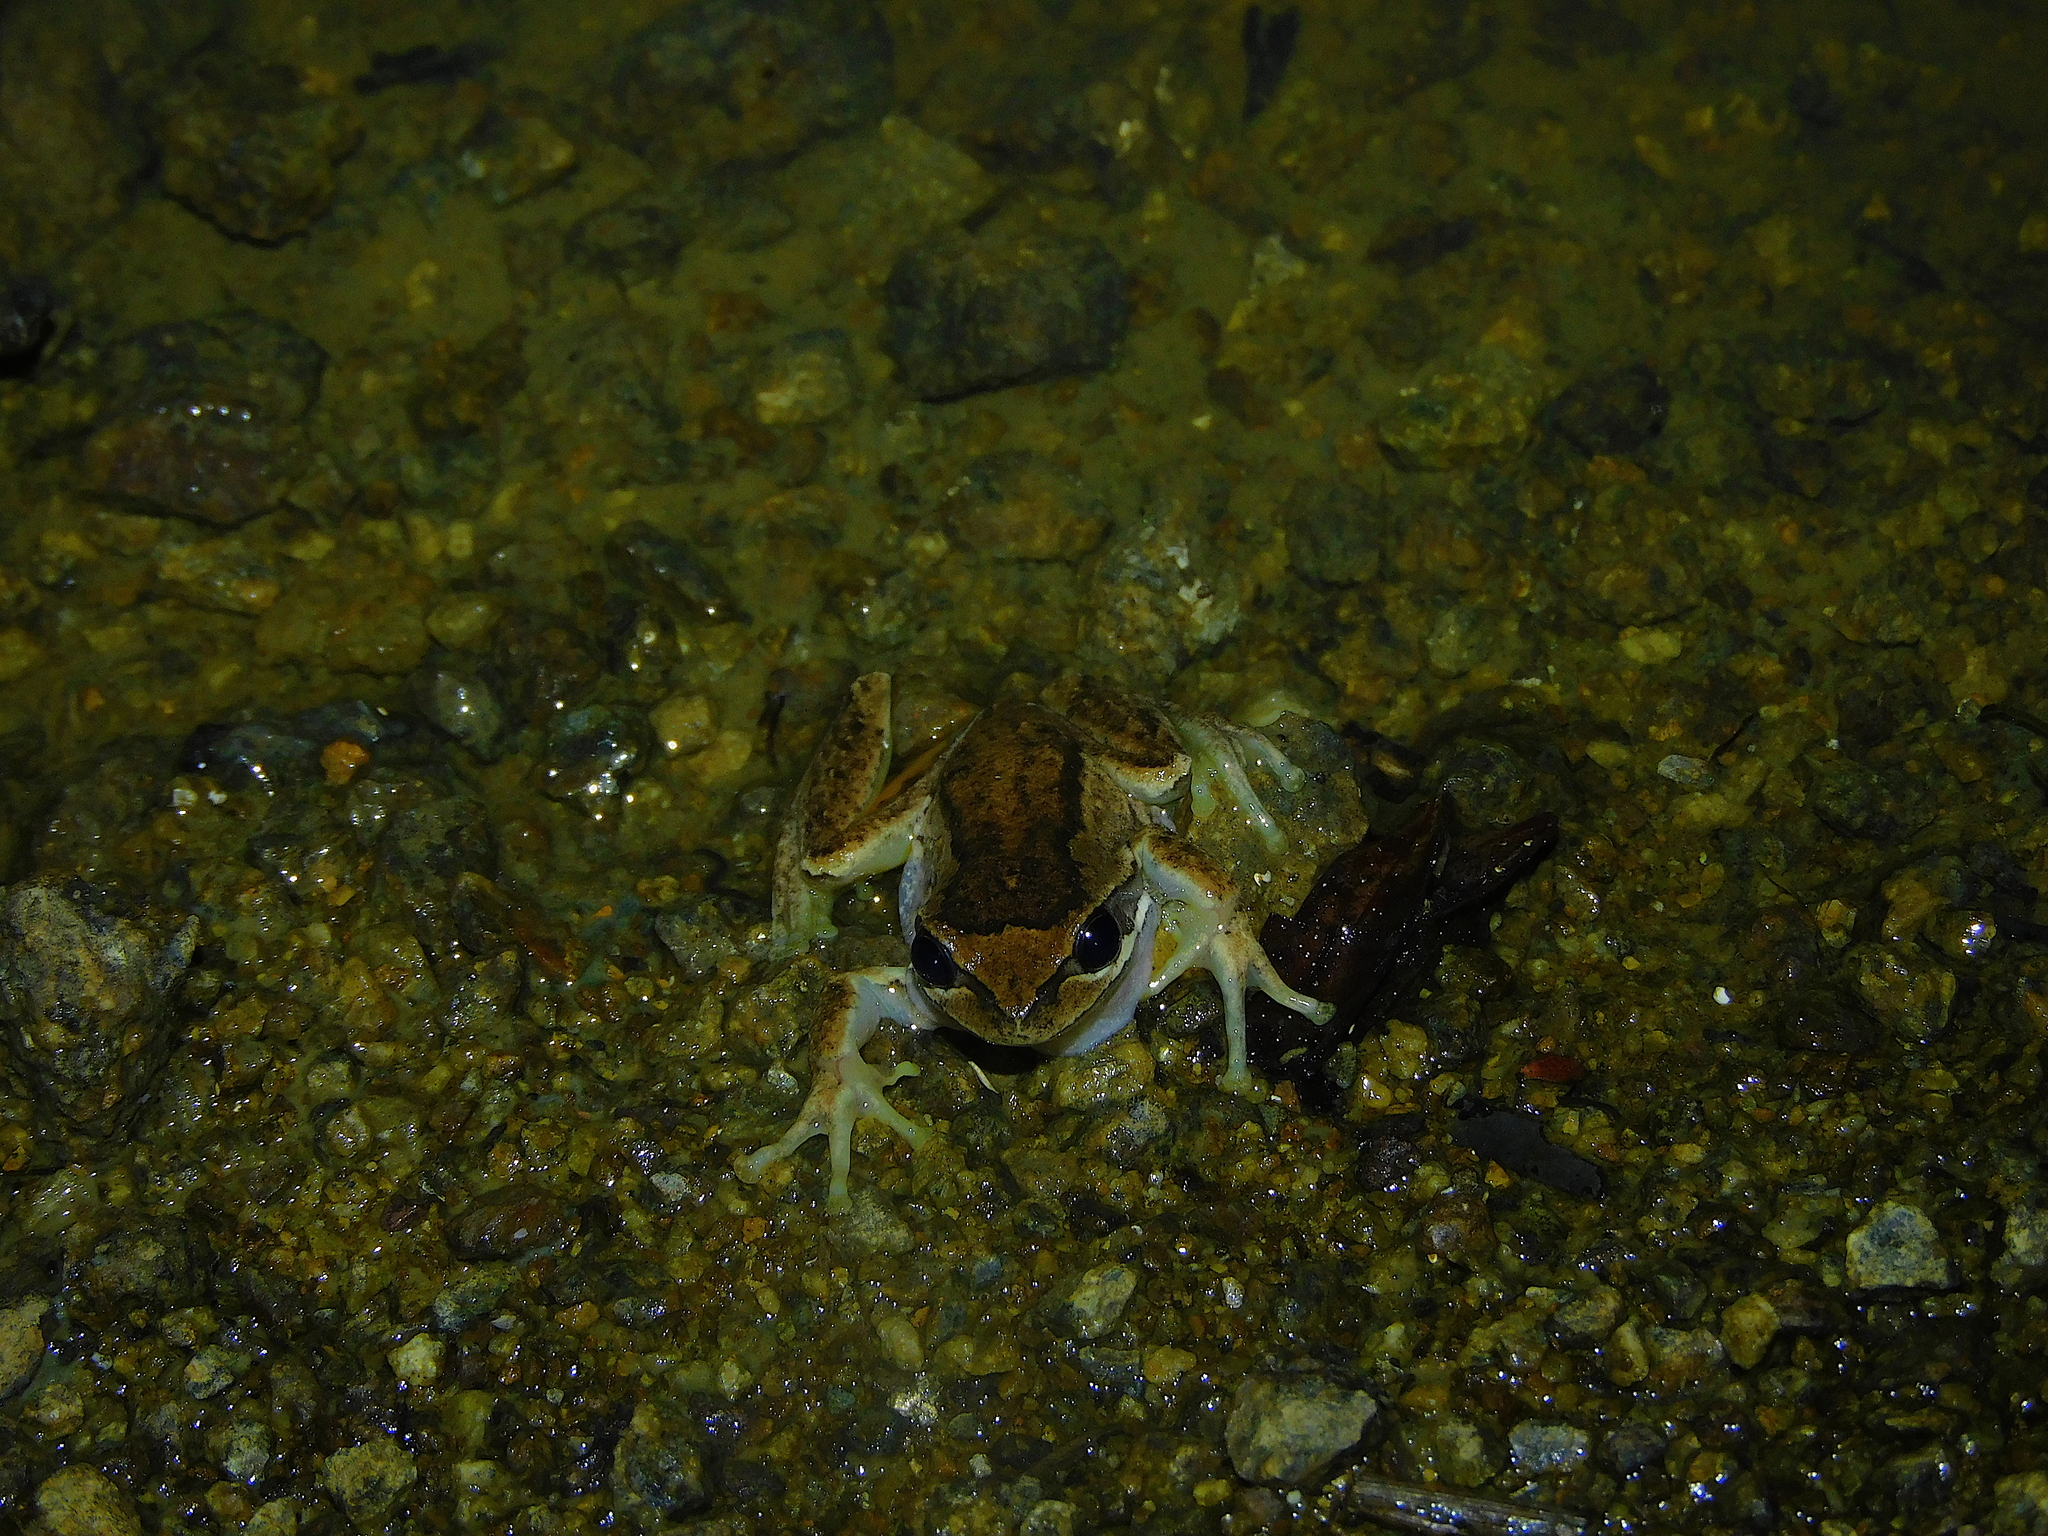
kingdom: Animalia
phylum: Chordata
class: Amphibia
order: Anura
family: Pelodryadidae
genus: Litoria
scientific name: Litoria ewingii
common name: Southern brown tree frog
